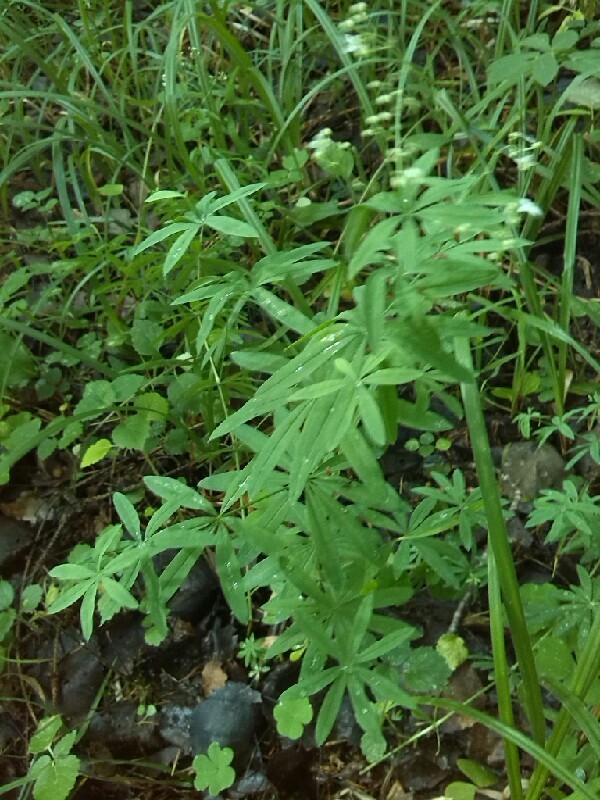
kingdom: Plantae
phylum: Tracheophyta
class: Magnoliopsida
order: Gentianales
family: Rubiaceae
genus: Galium
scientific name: Galium sylvaticum
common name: Wood bedstraw
